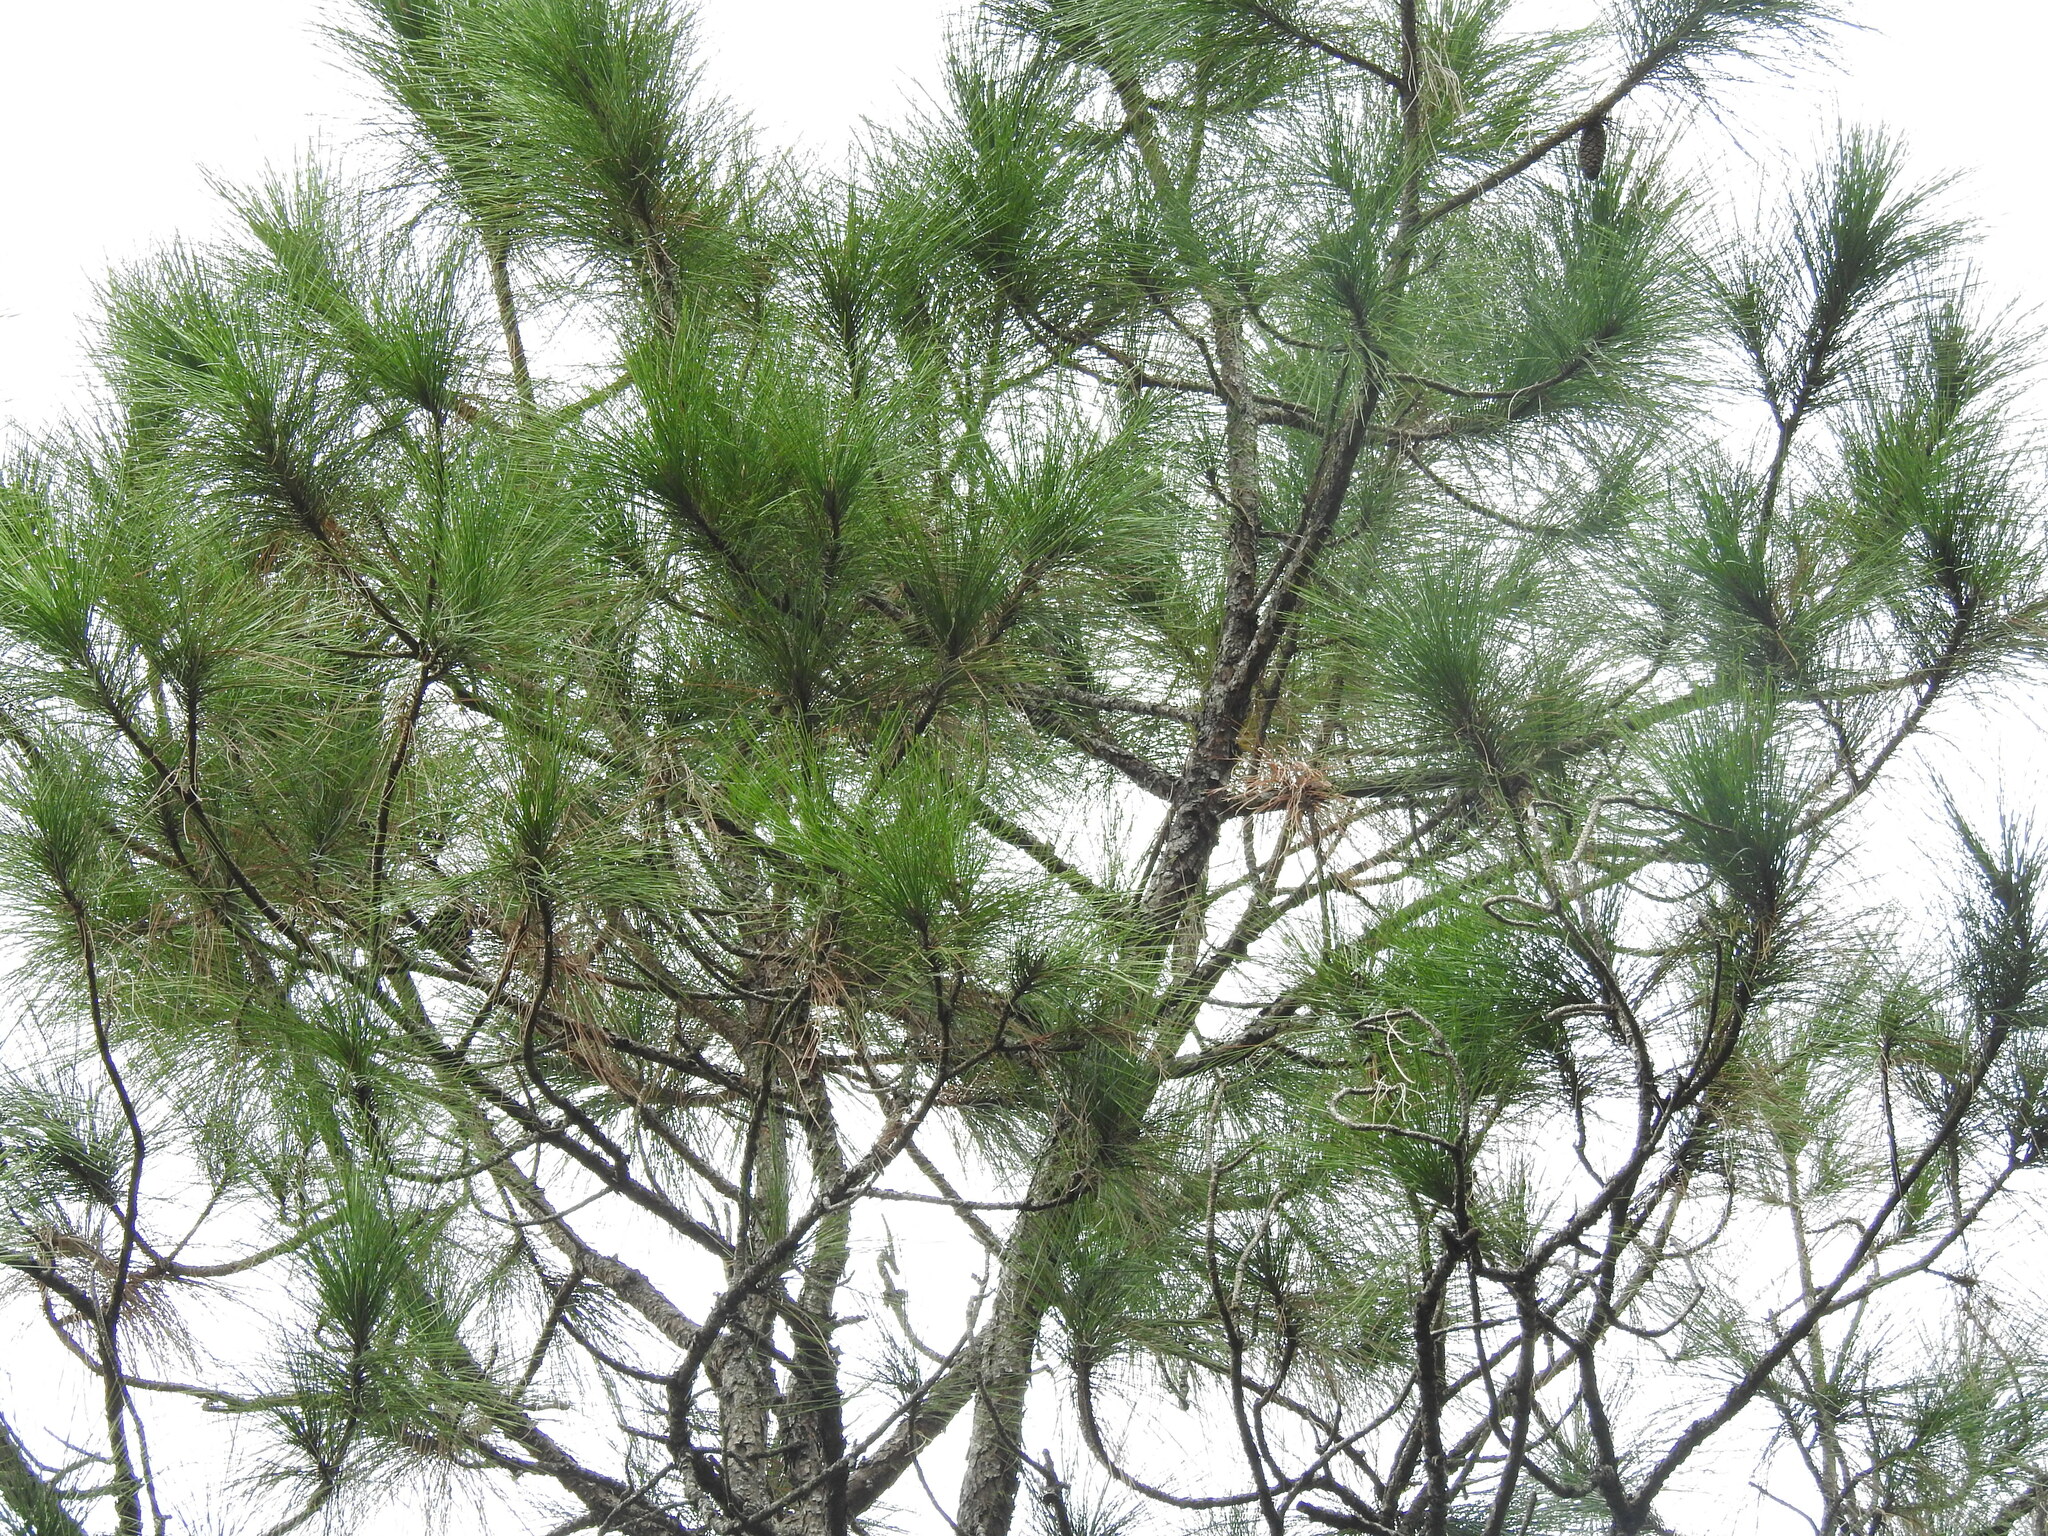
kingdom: Plantae
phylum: Tracheophyta
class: Pinopsida
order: Pinales
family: Pinaceae
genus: Pinus
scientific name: Pinus elliottii
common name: Slash pine
